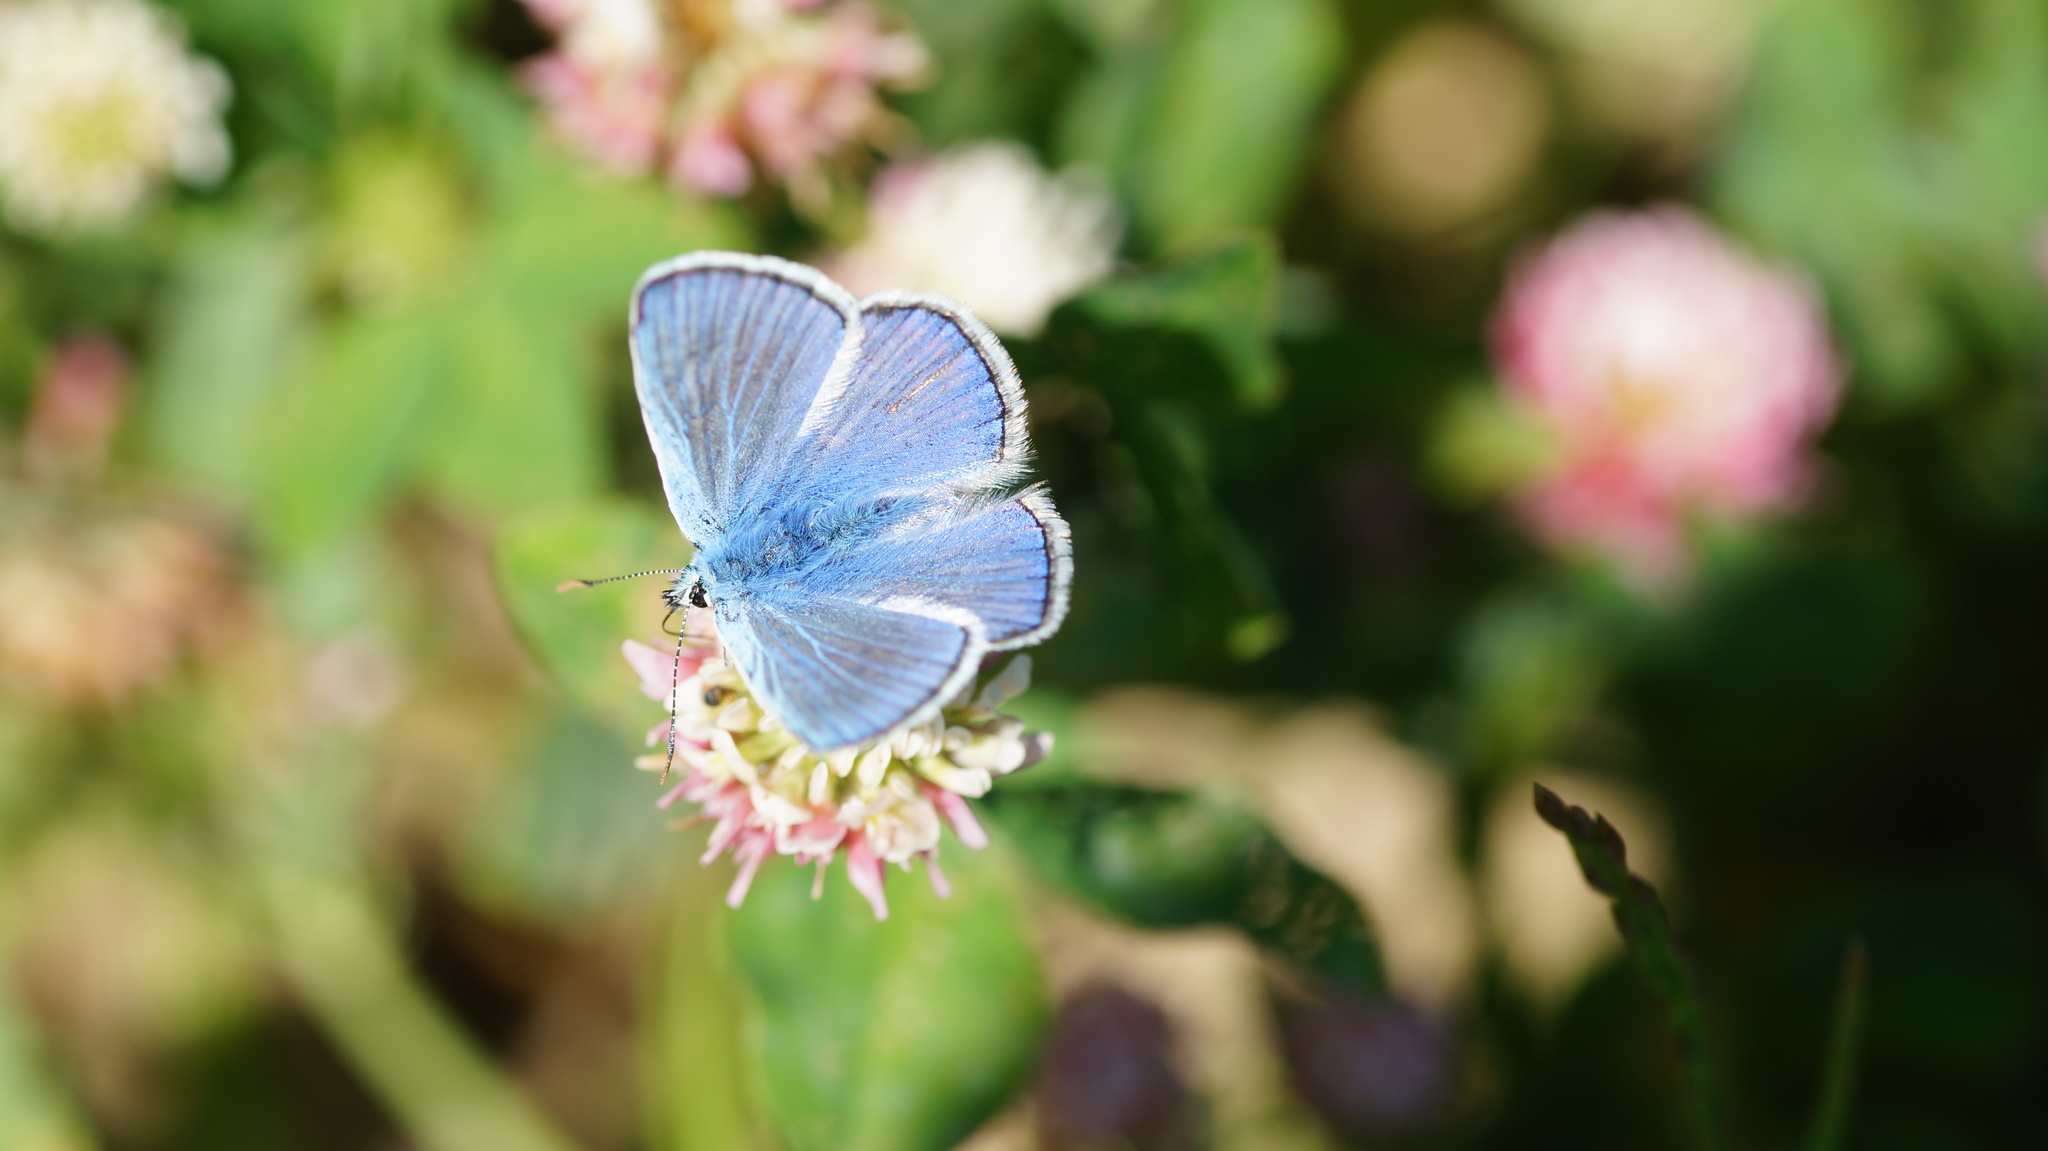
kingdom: Animalia
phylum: Arthropoda
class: Insecta
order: Lepidoptera
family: Lycaenidae
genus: Polyommatus
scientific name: Polyommatus
